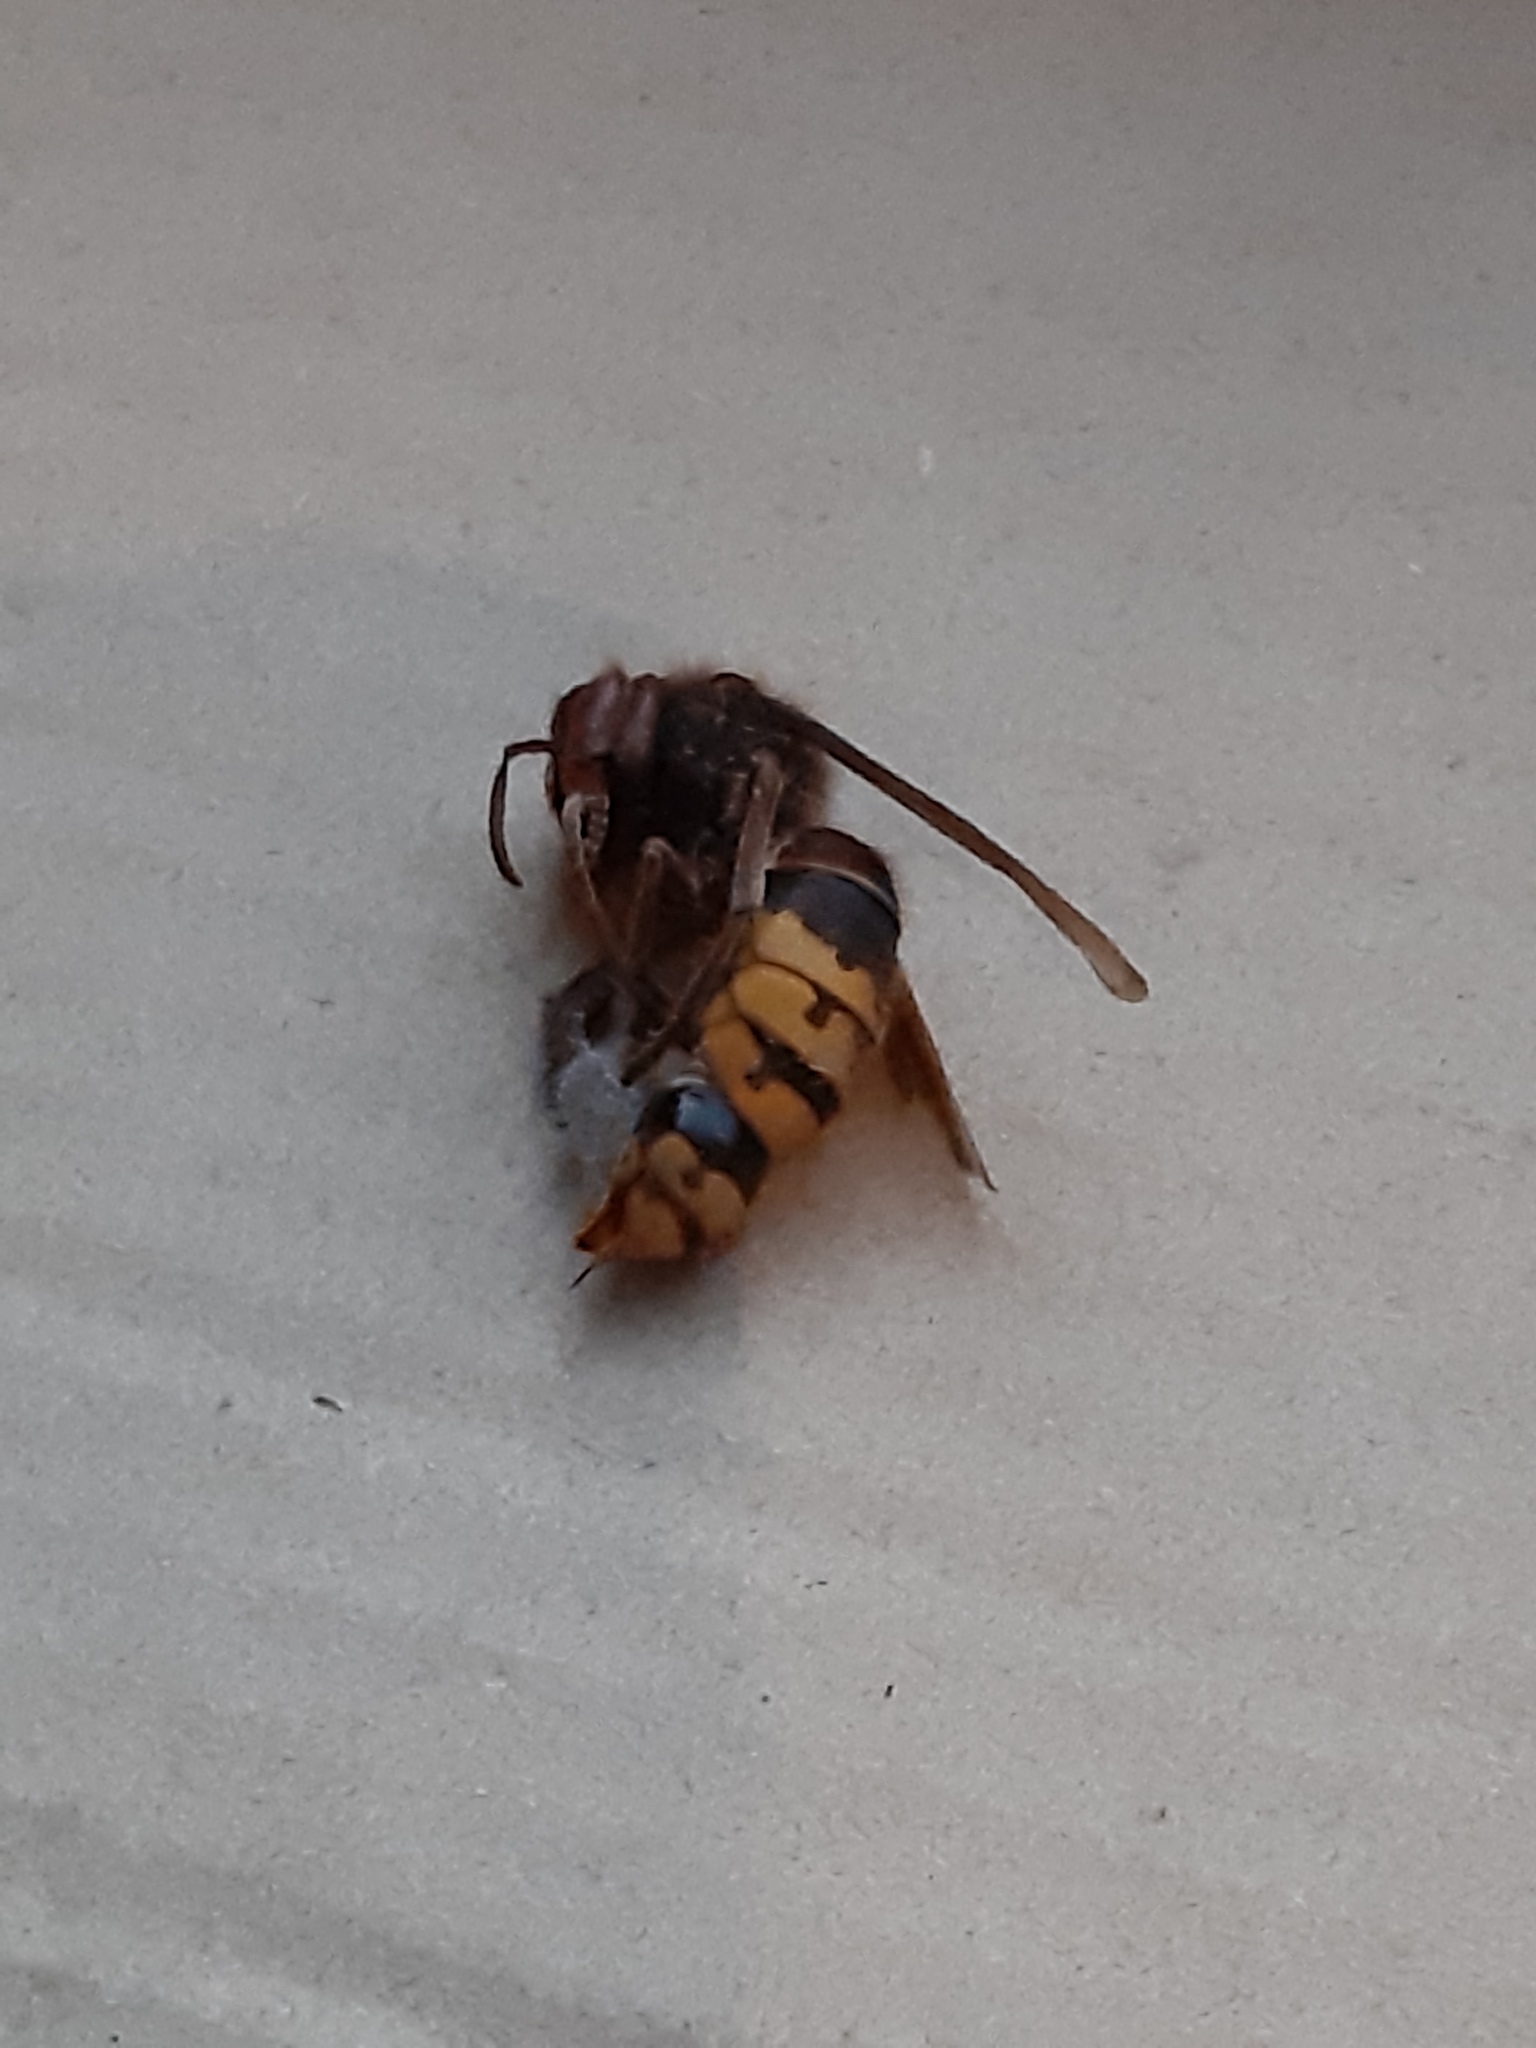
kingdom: Animalia
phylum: Arthropoda
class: Insecta
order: Hymenoptera
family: Vespidae
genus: Vespa
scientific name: Vespa crabro
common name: Hornet
